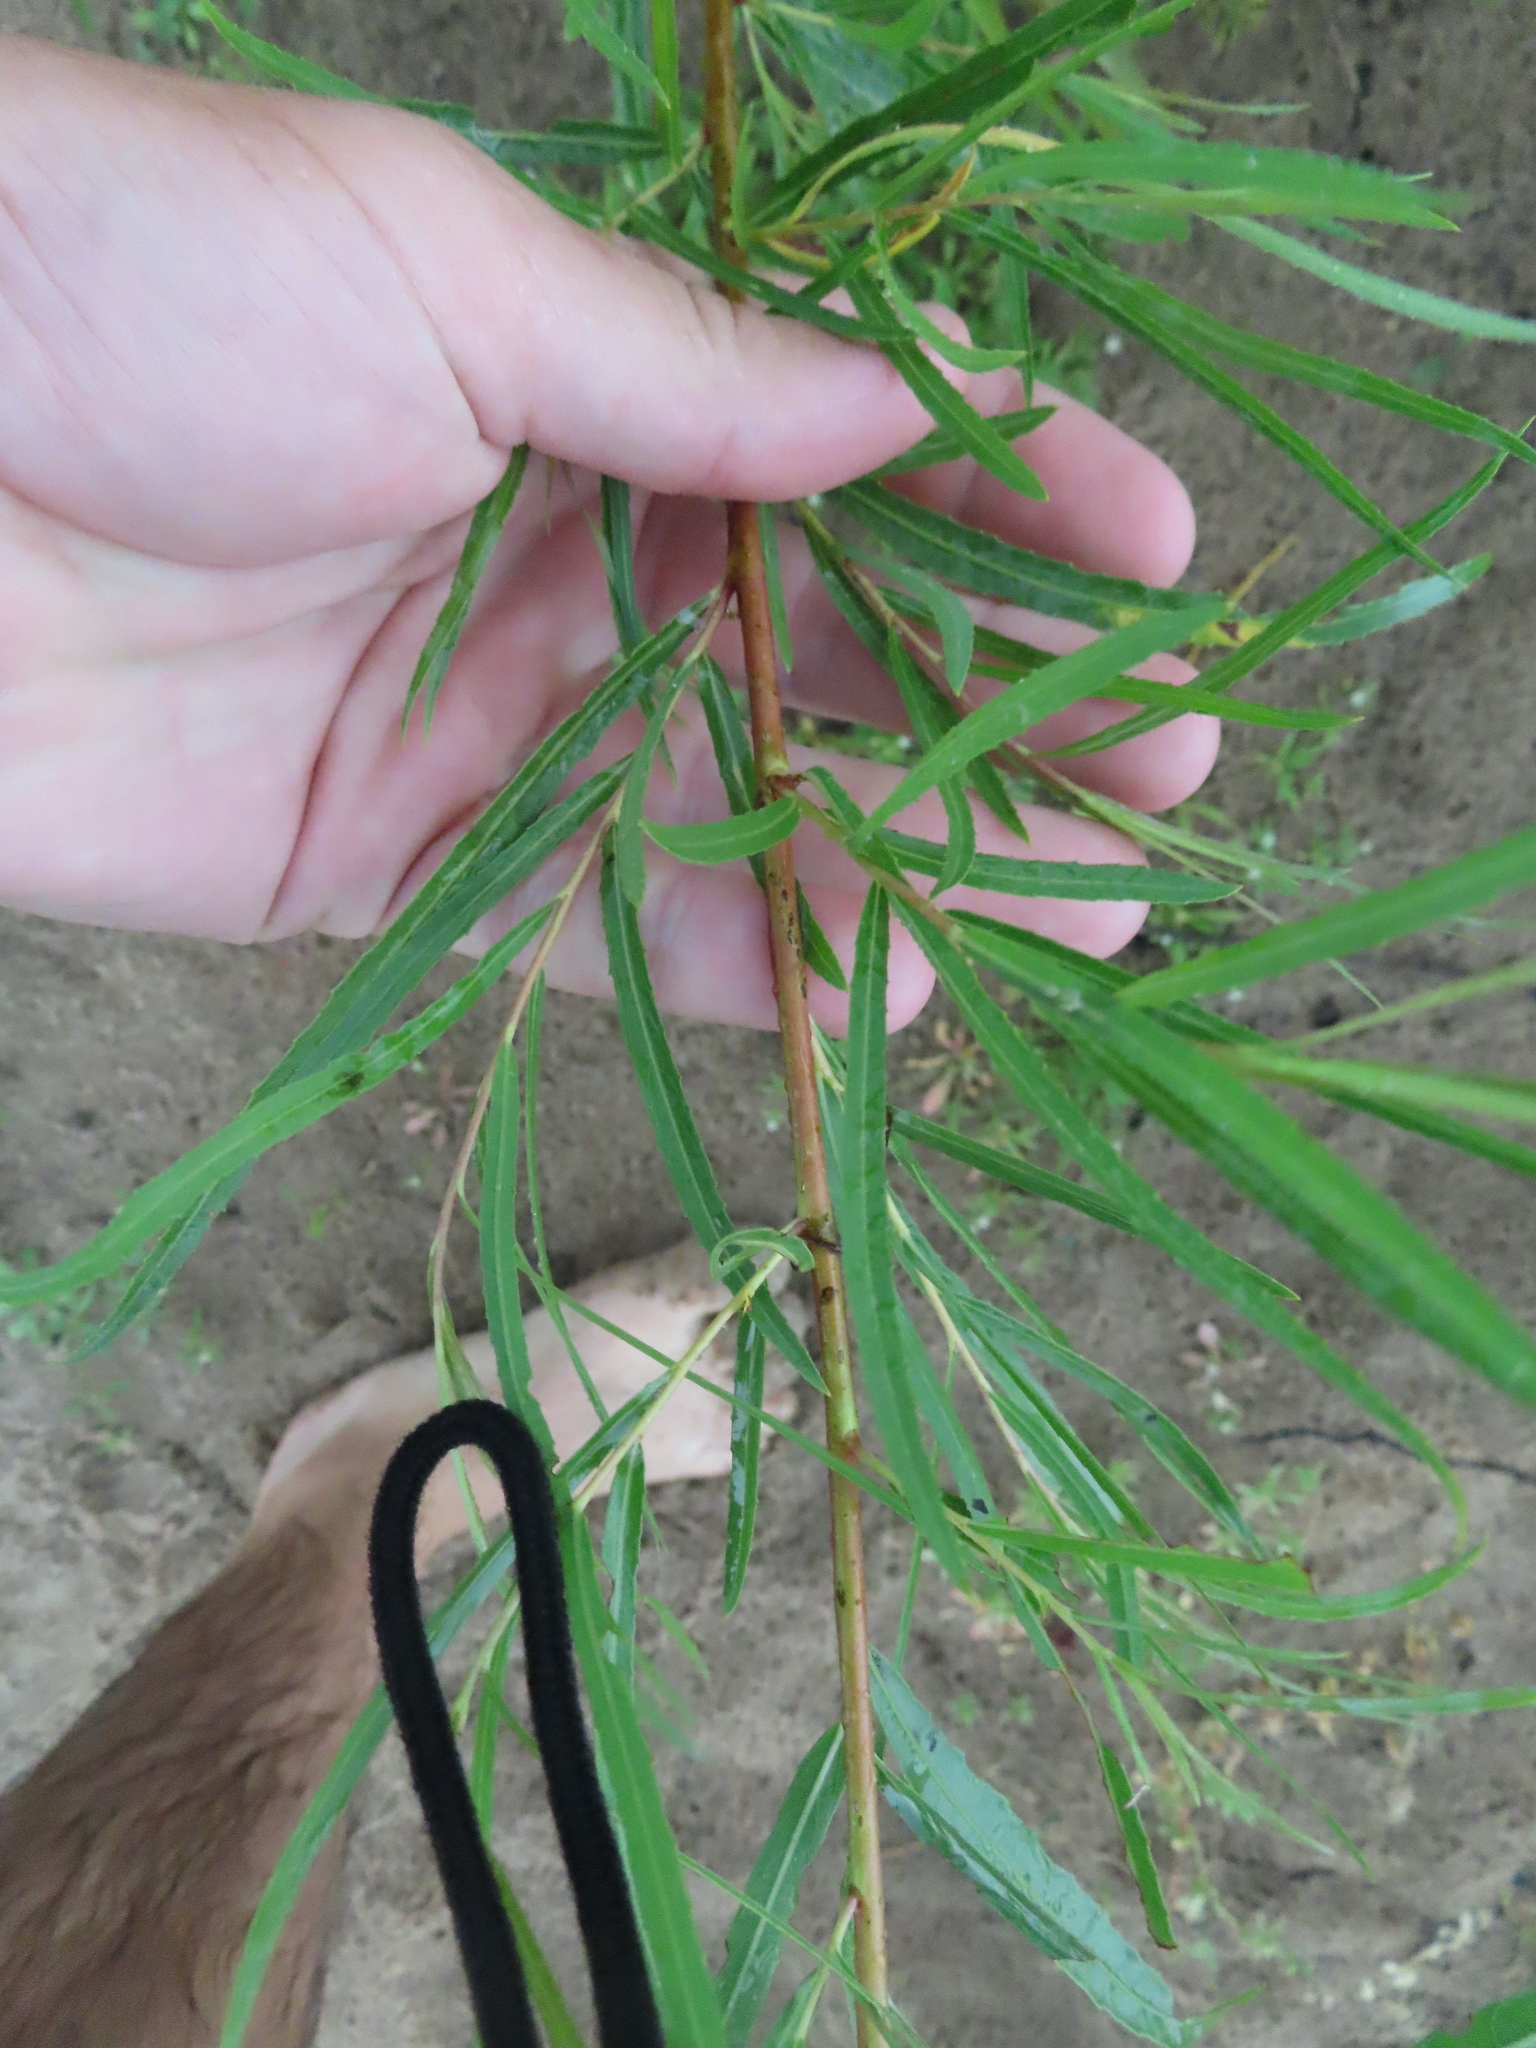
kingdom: Plantae
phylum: Tracheophyta
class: Magnoliopsida
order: Malpighiales
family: Salicaceae
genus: Salix
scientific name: Salix interior
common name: Sandbar willow
